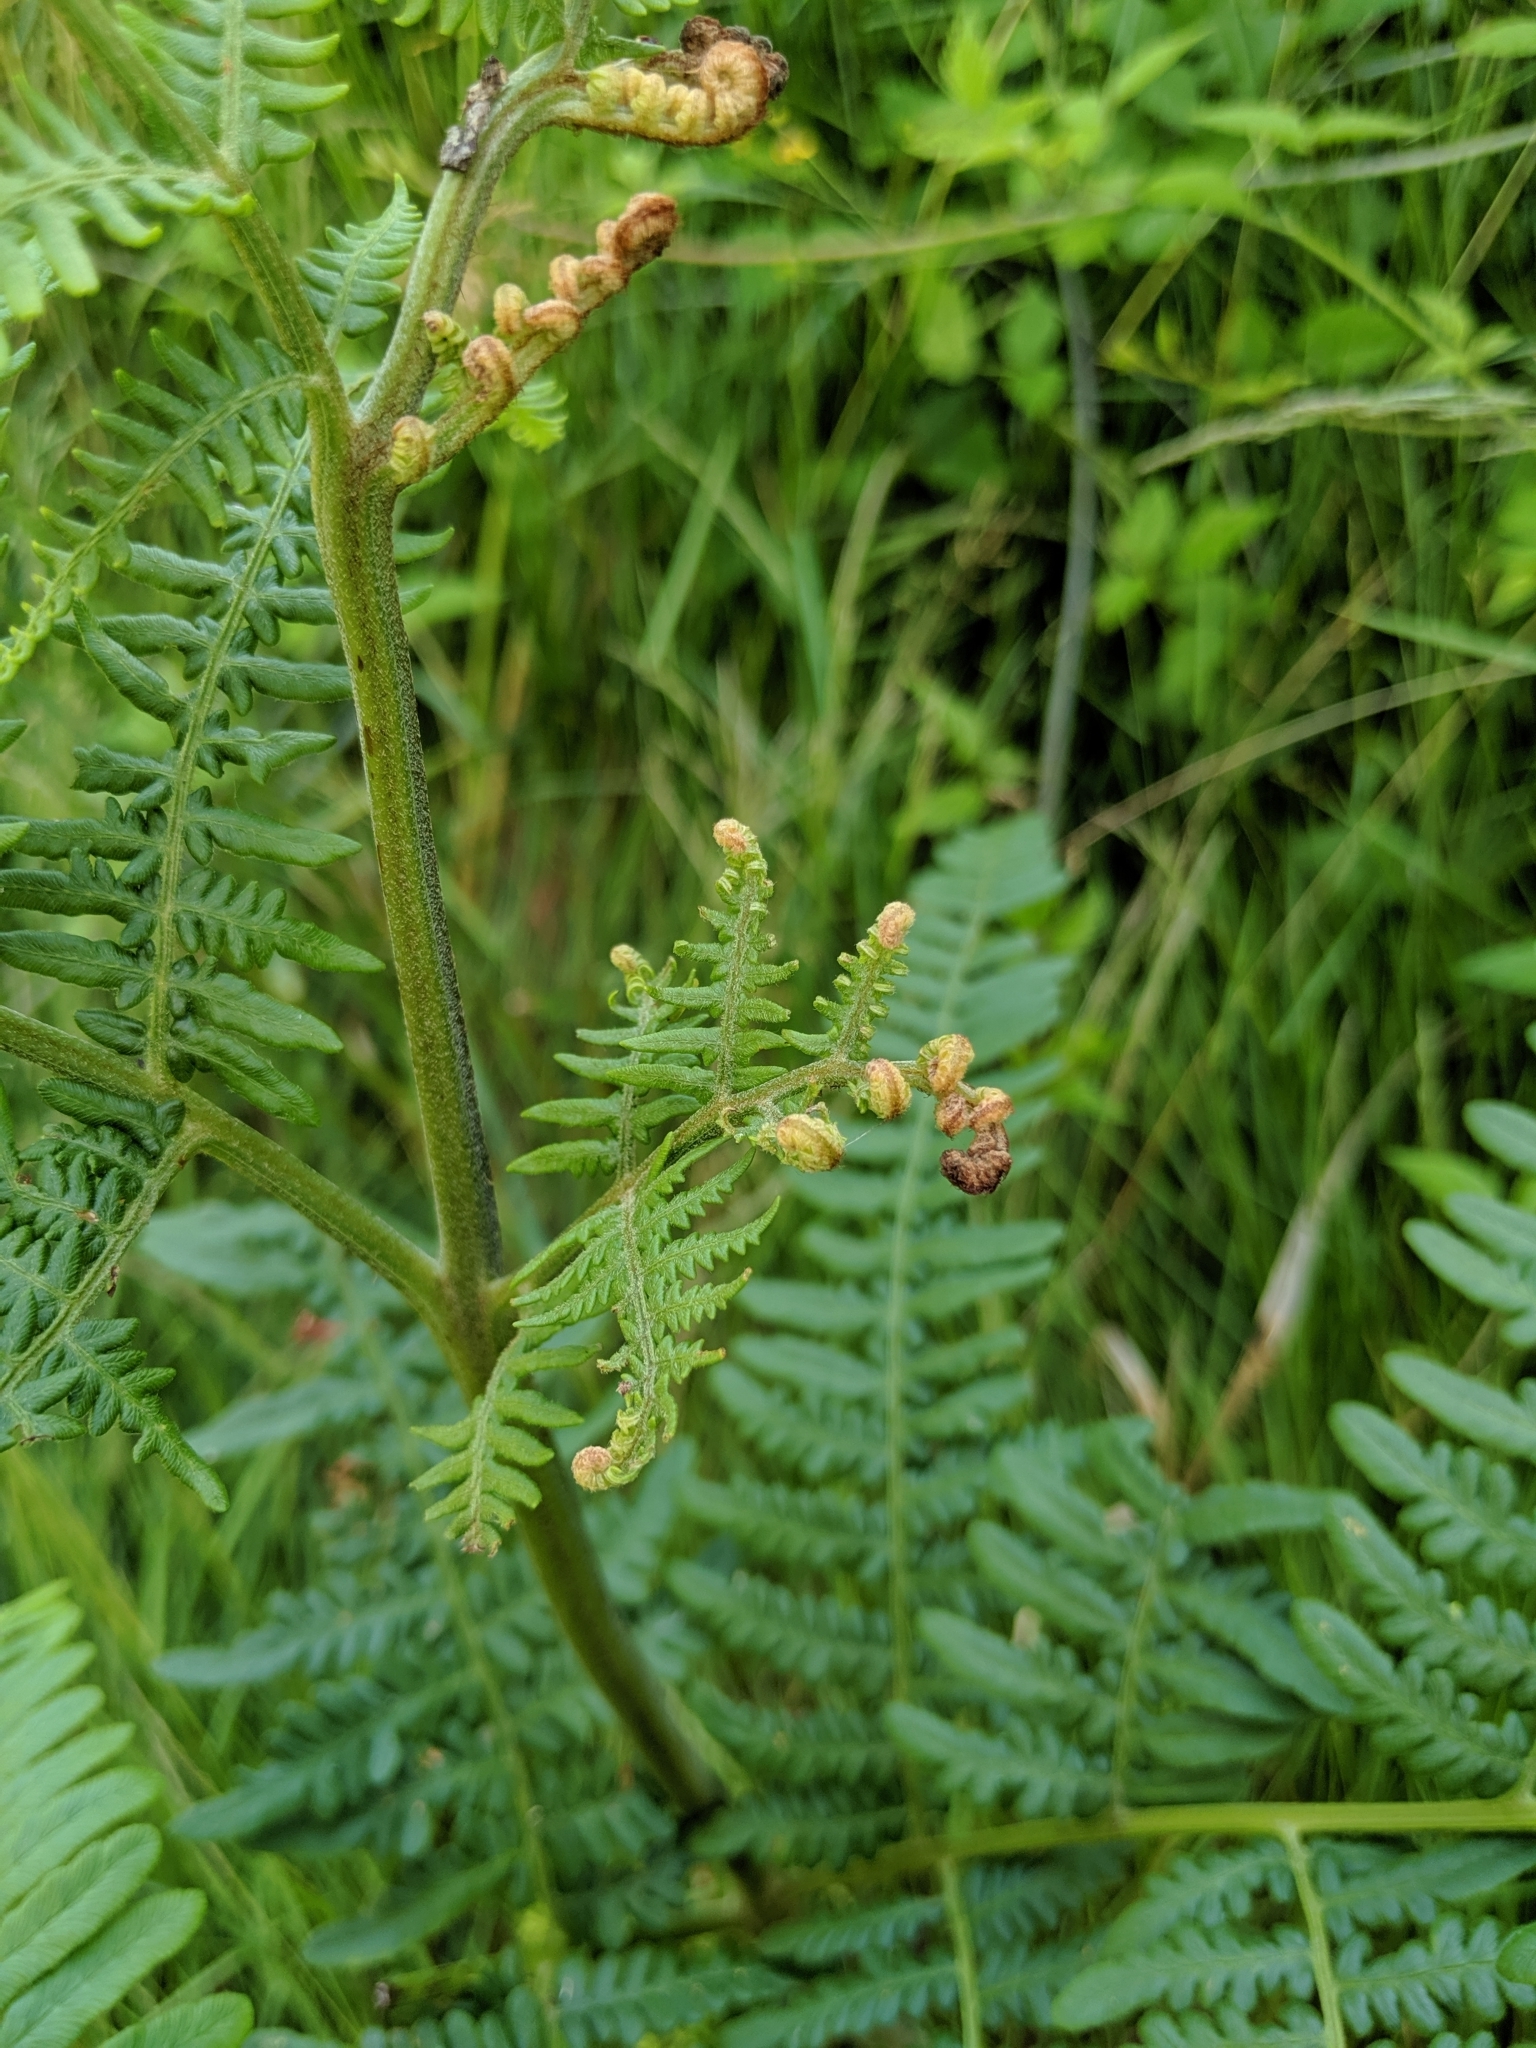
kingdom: Plantae
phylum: Tracheophyta
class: Polypodiopsida
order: Polypodiales
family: Dennstaedtiaceae
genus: Pteridium
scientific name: Pteridium aquilinum
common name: Bracken
